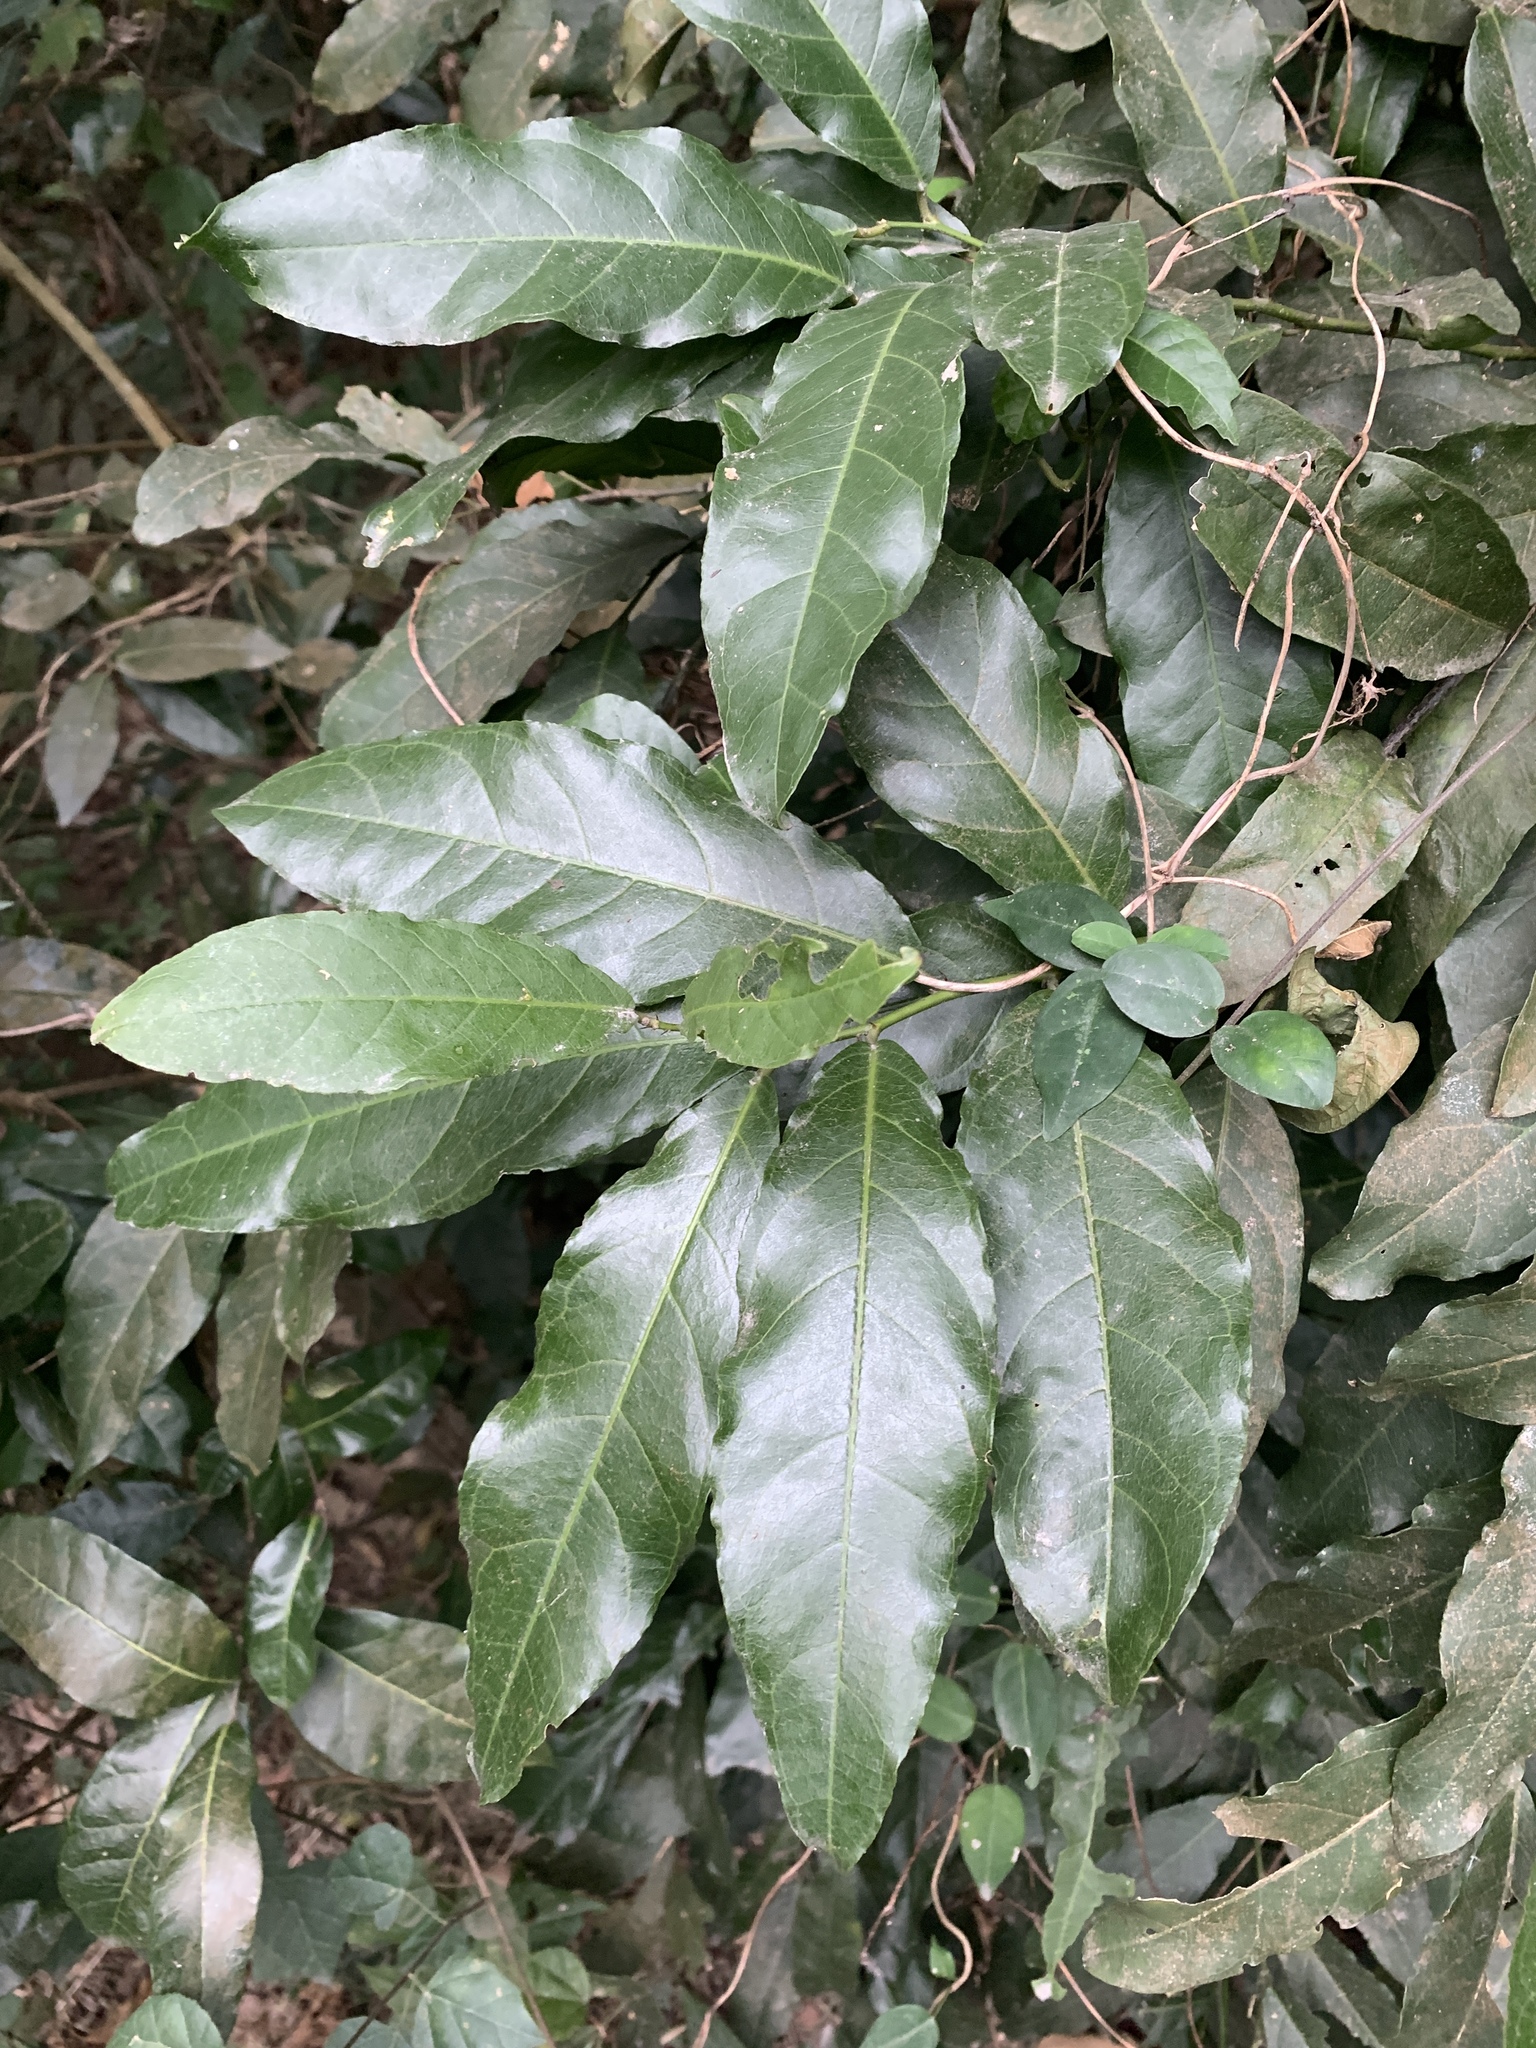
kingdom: Plantae
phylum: Tracheophyta
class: Magnoliopsida
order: Brassicales
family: Capparaceae
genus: Capparis
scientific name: Capparis henryi
